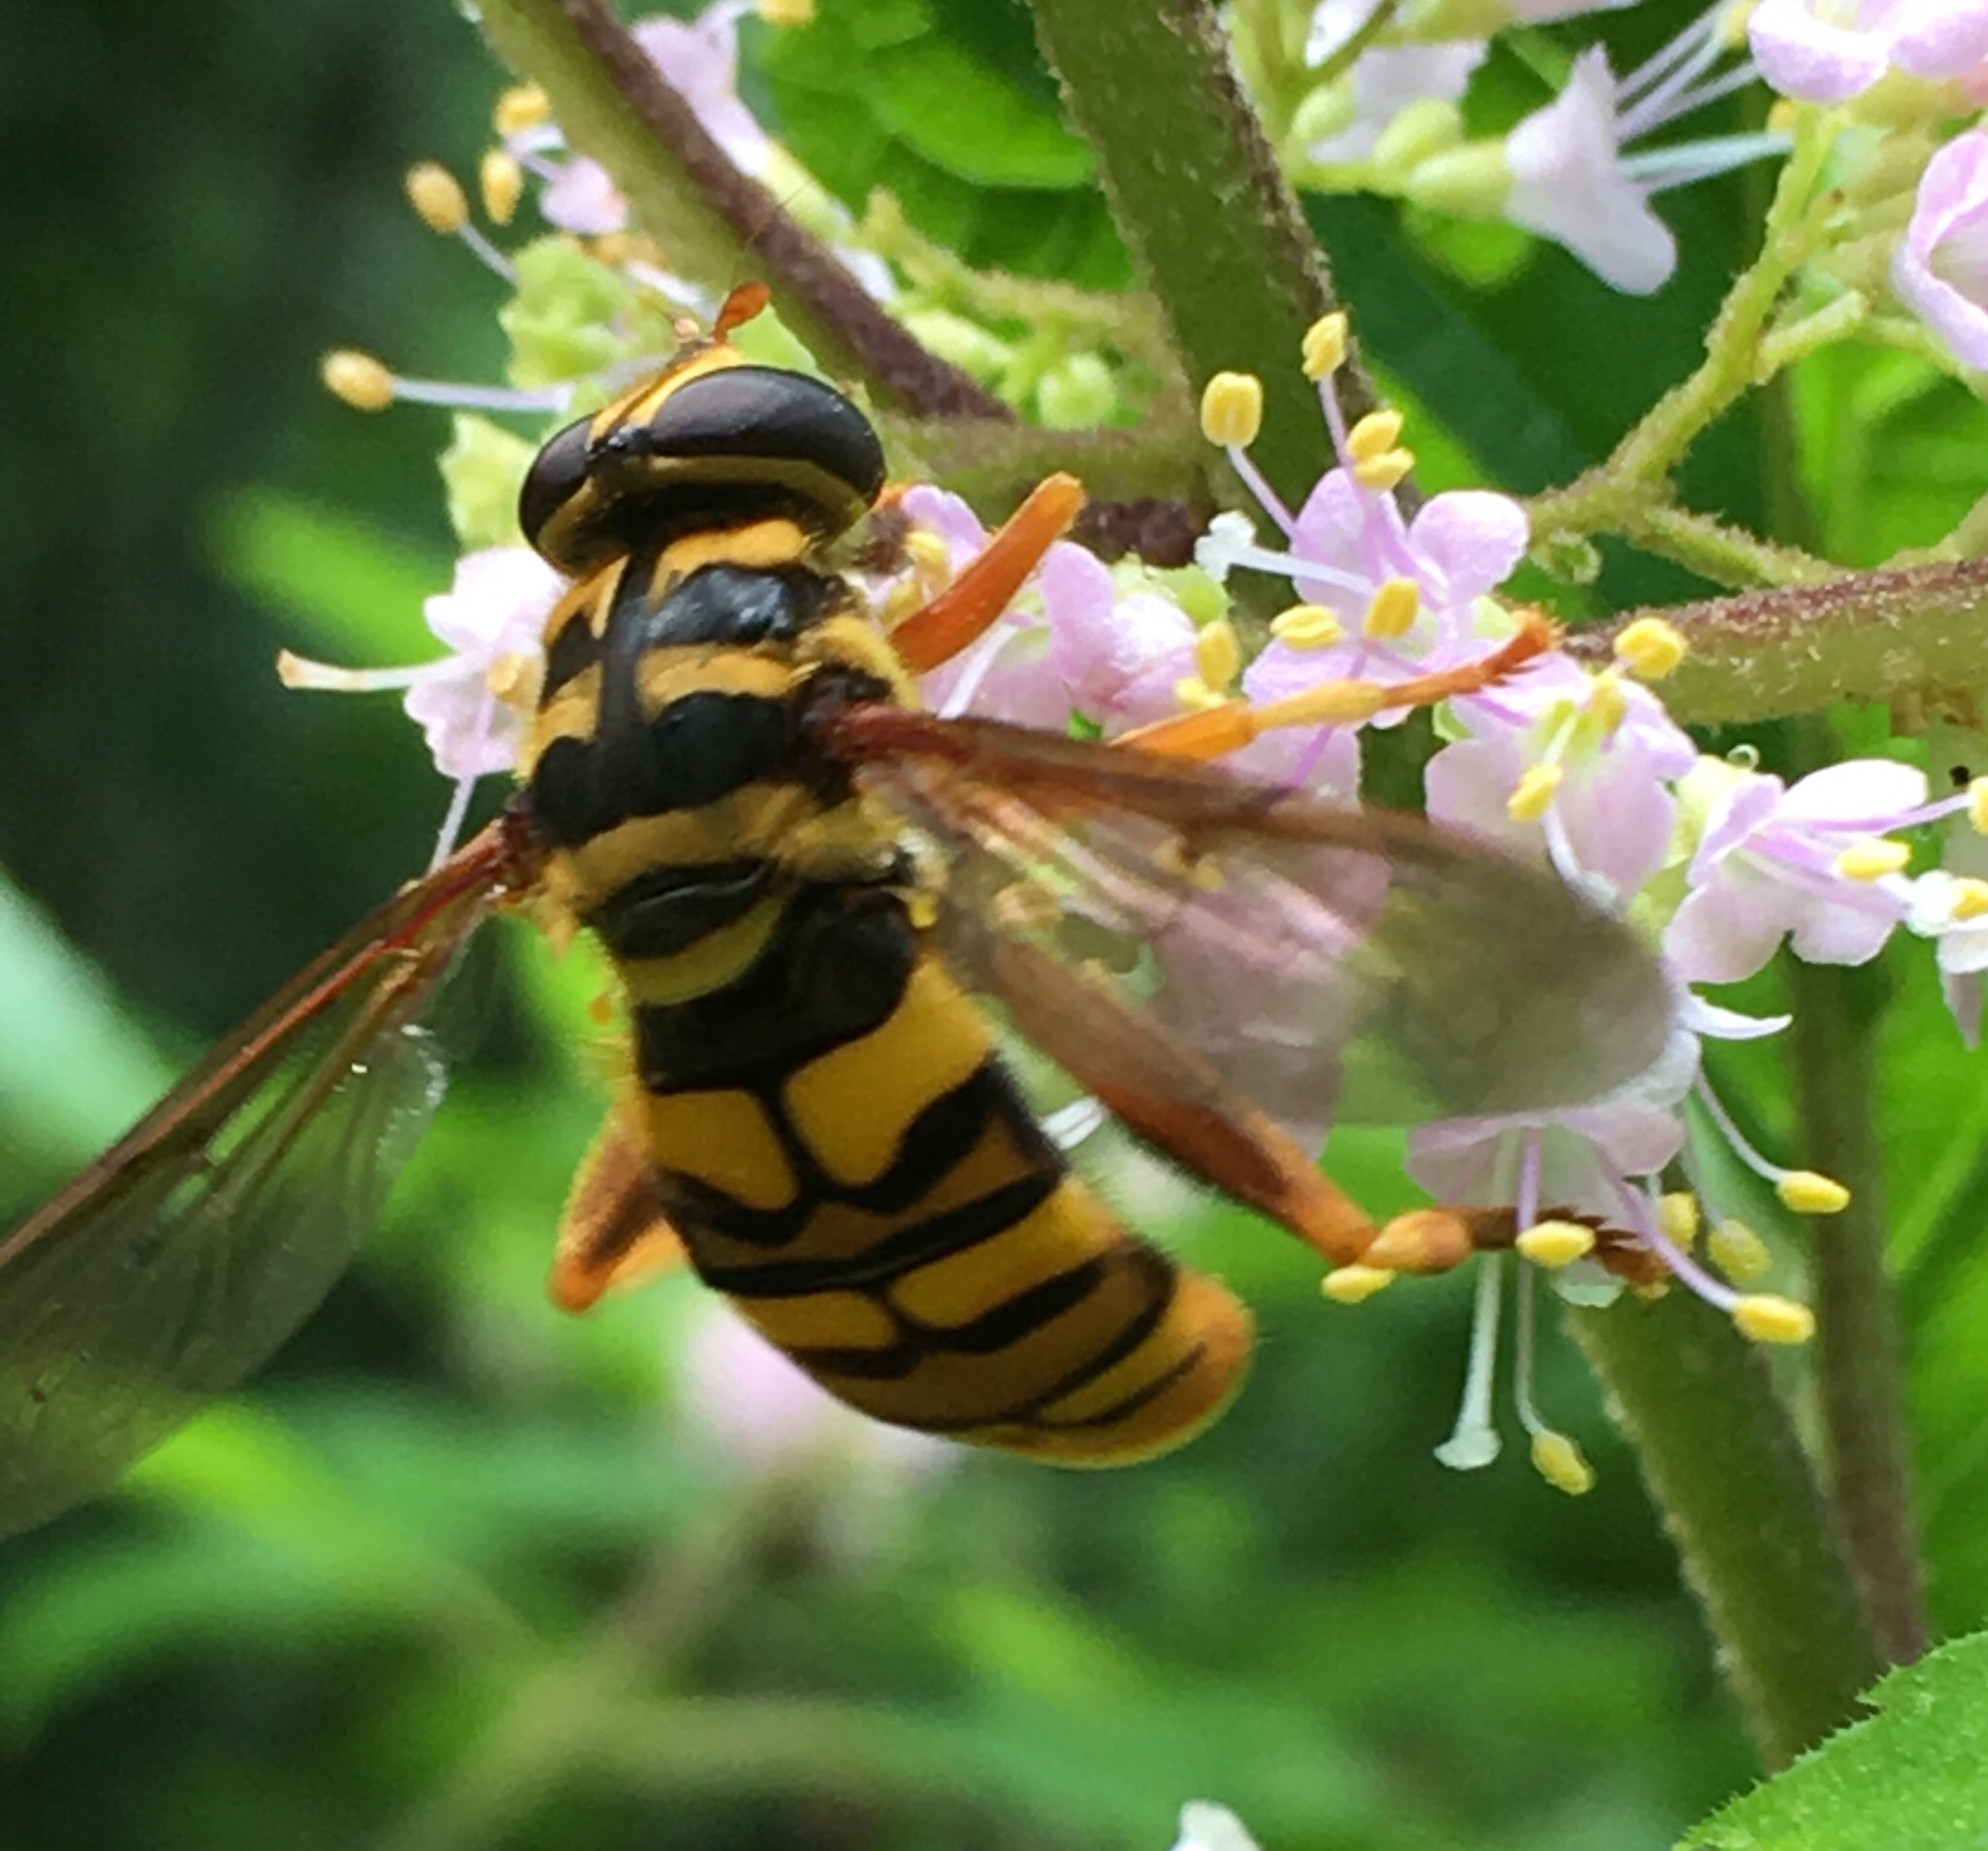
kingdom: Animalia
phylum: Arthropoda
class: Insecta
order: Diptera
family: Syrphidae
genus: Milesia
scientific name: Milesia virginiensis
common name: Virginia giant
